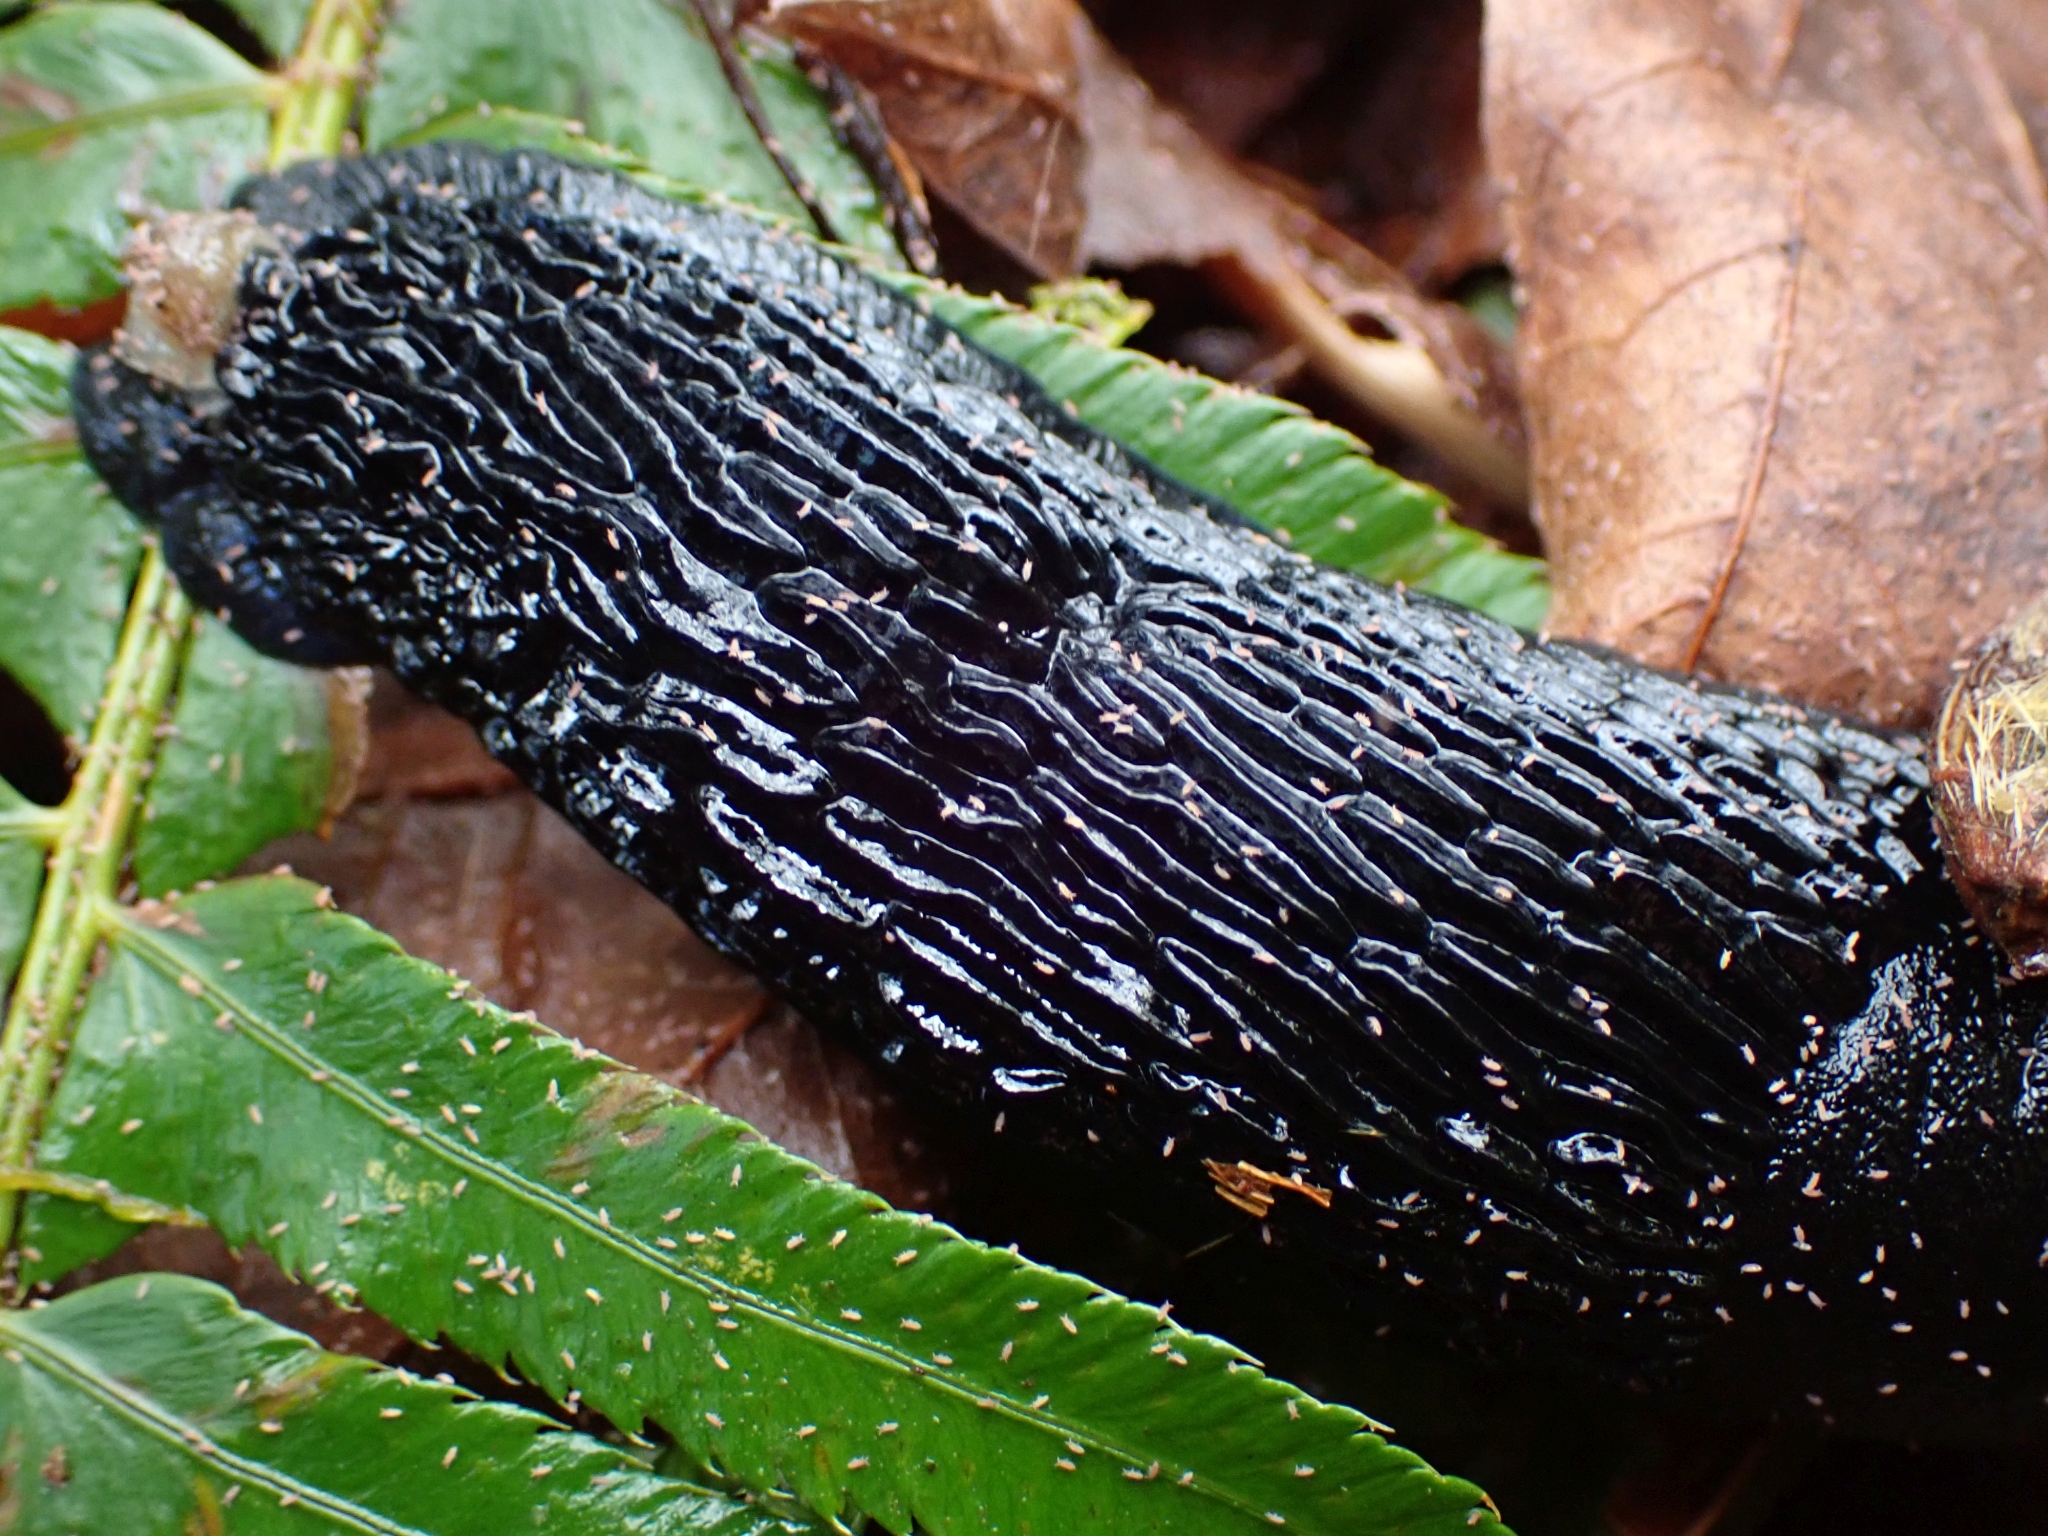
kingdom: Animalia
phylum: Mollusca
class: Gastropoda
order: Stylommatophora
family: Arionidae
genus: Arion
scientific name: Arion
